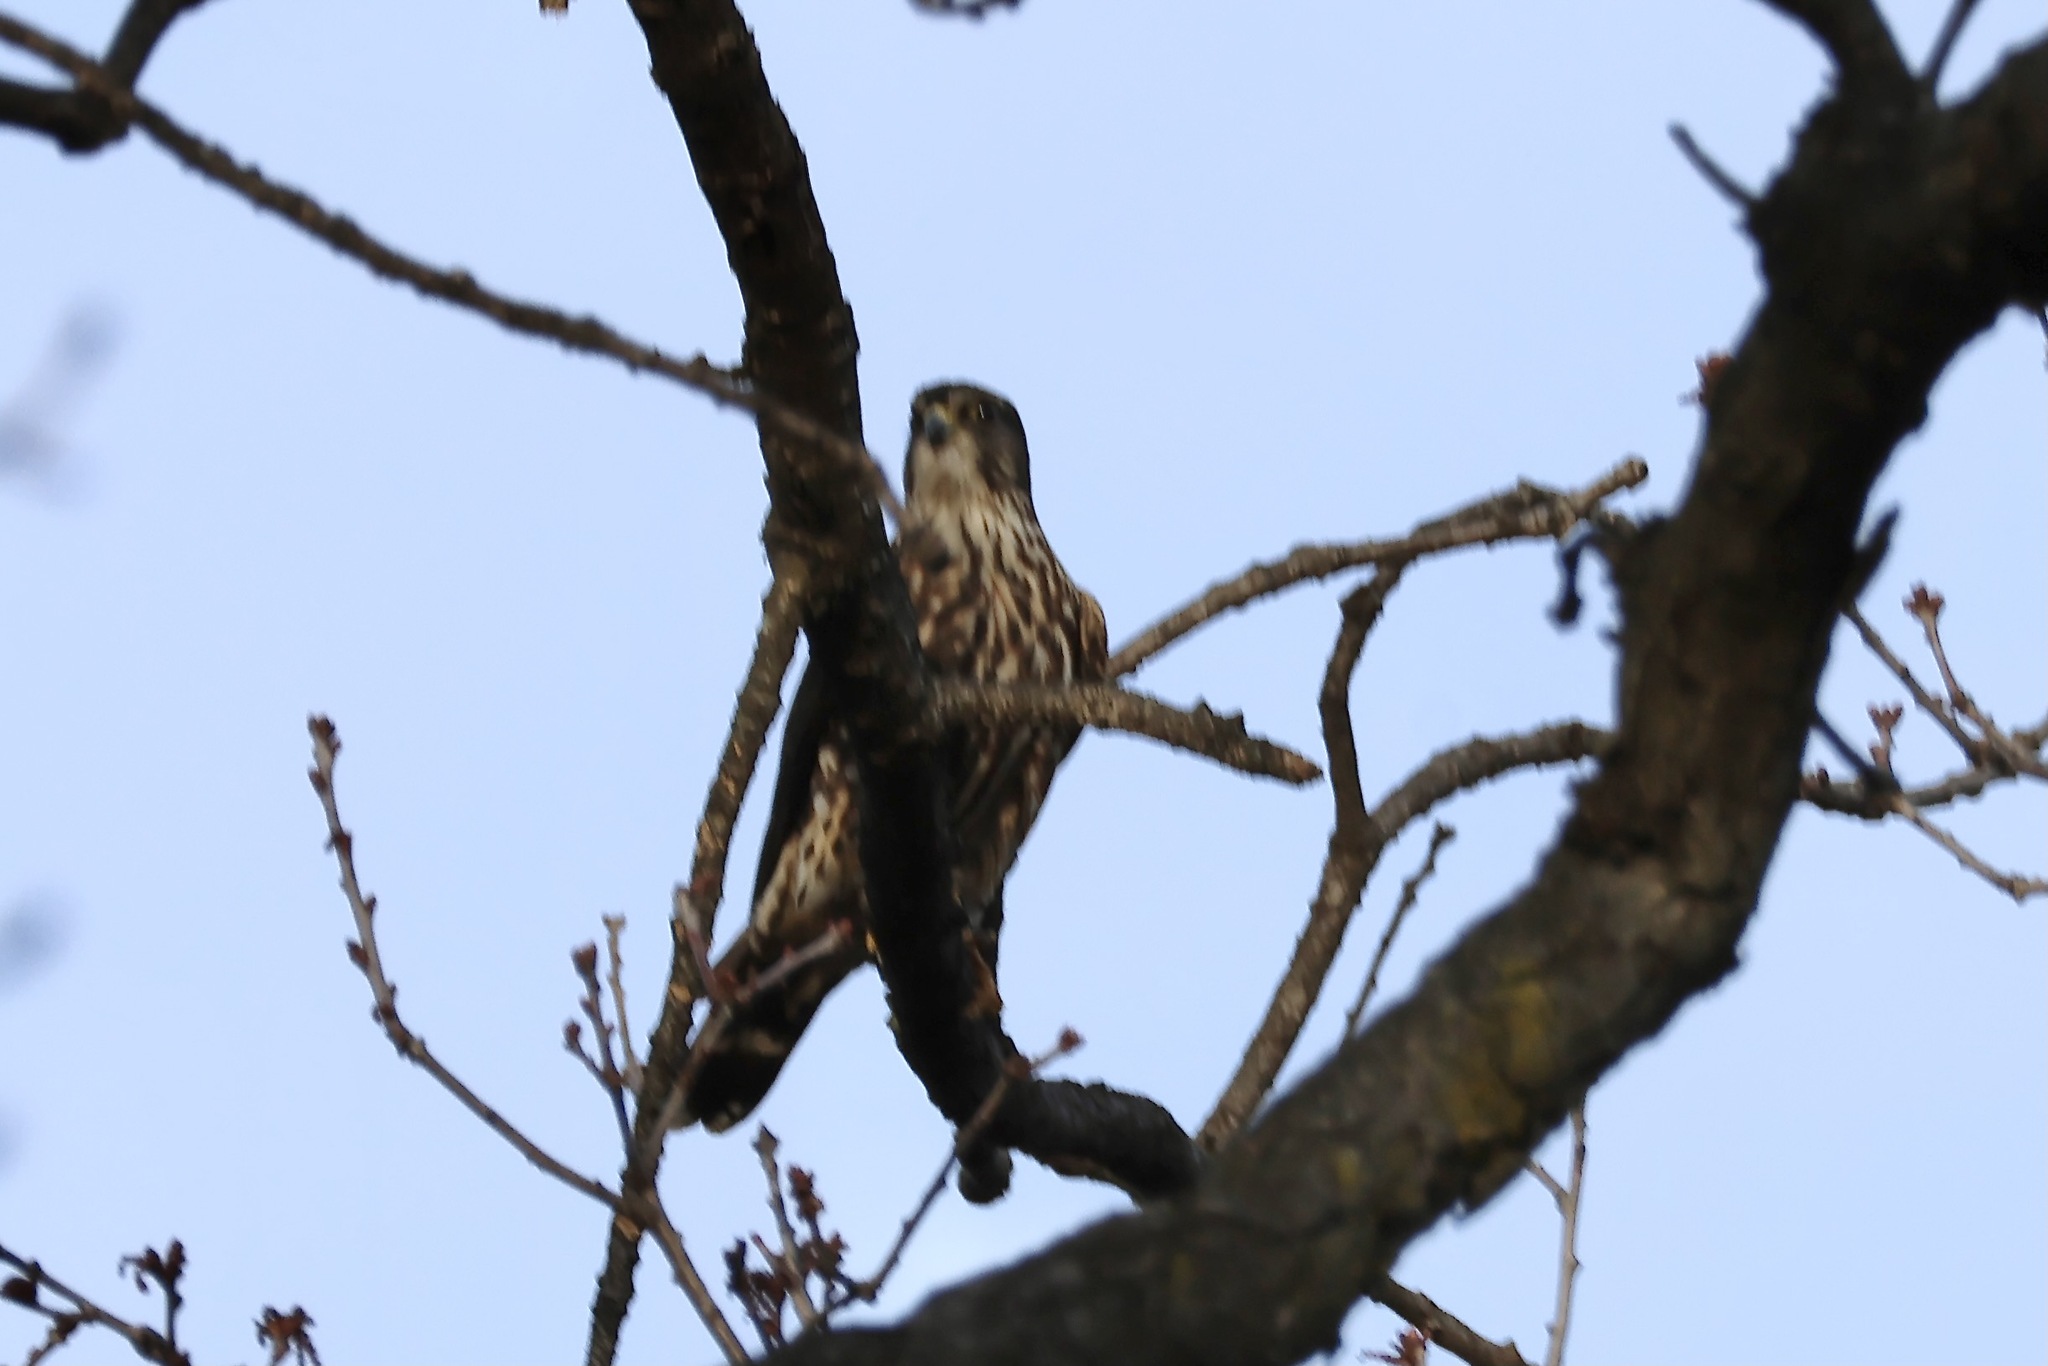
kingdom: Animalia
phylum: Chordata
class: Aves
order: Falconiformes
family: Falconidae
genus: Falco
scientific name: Falco columbarius
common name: Merlin
